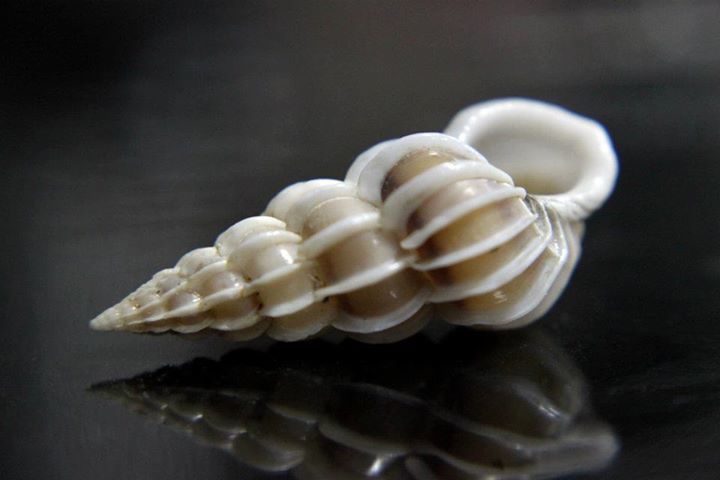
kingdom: Animalia
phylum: Mollusca
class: Gastropoda
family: Epitoniidae
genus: Gyroscala
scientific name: Gyroscala commutata
